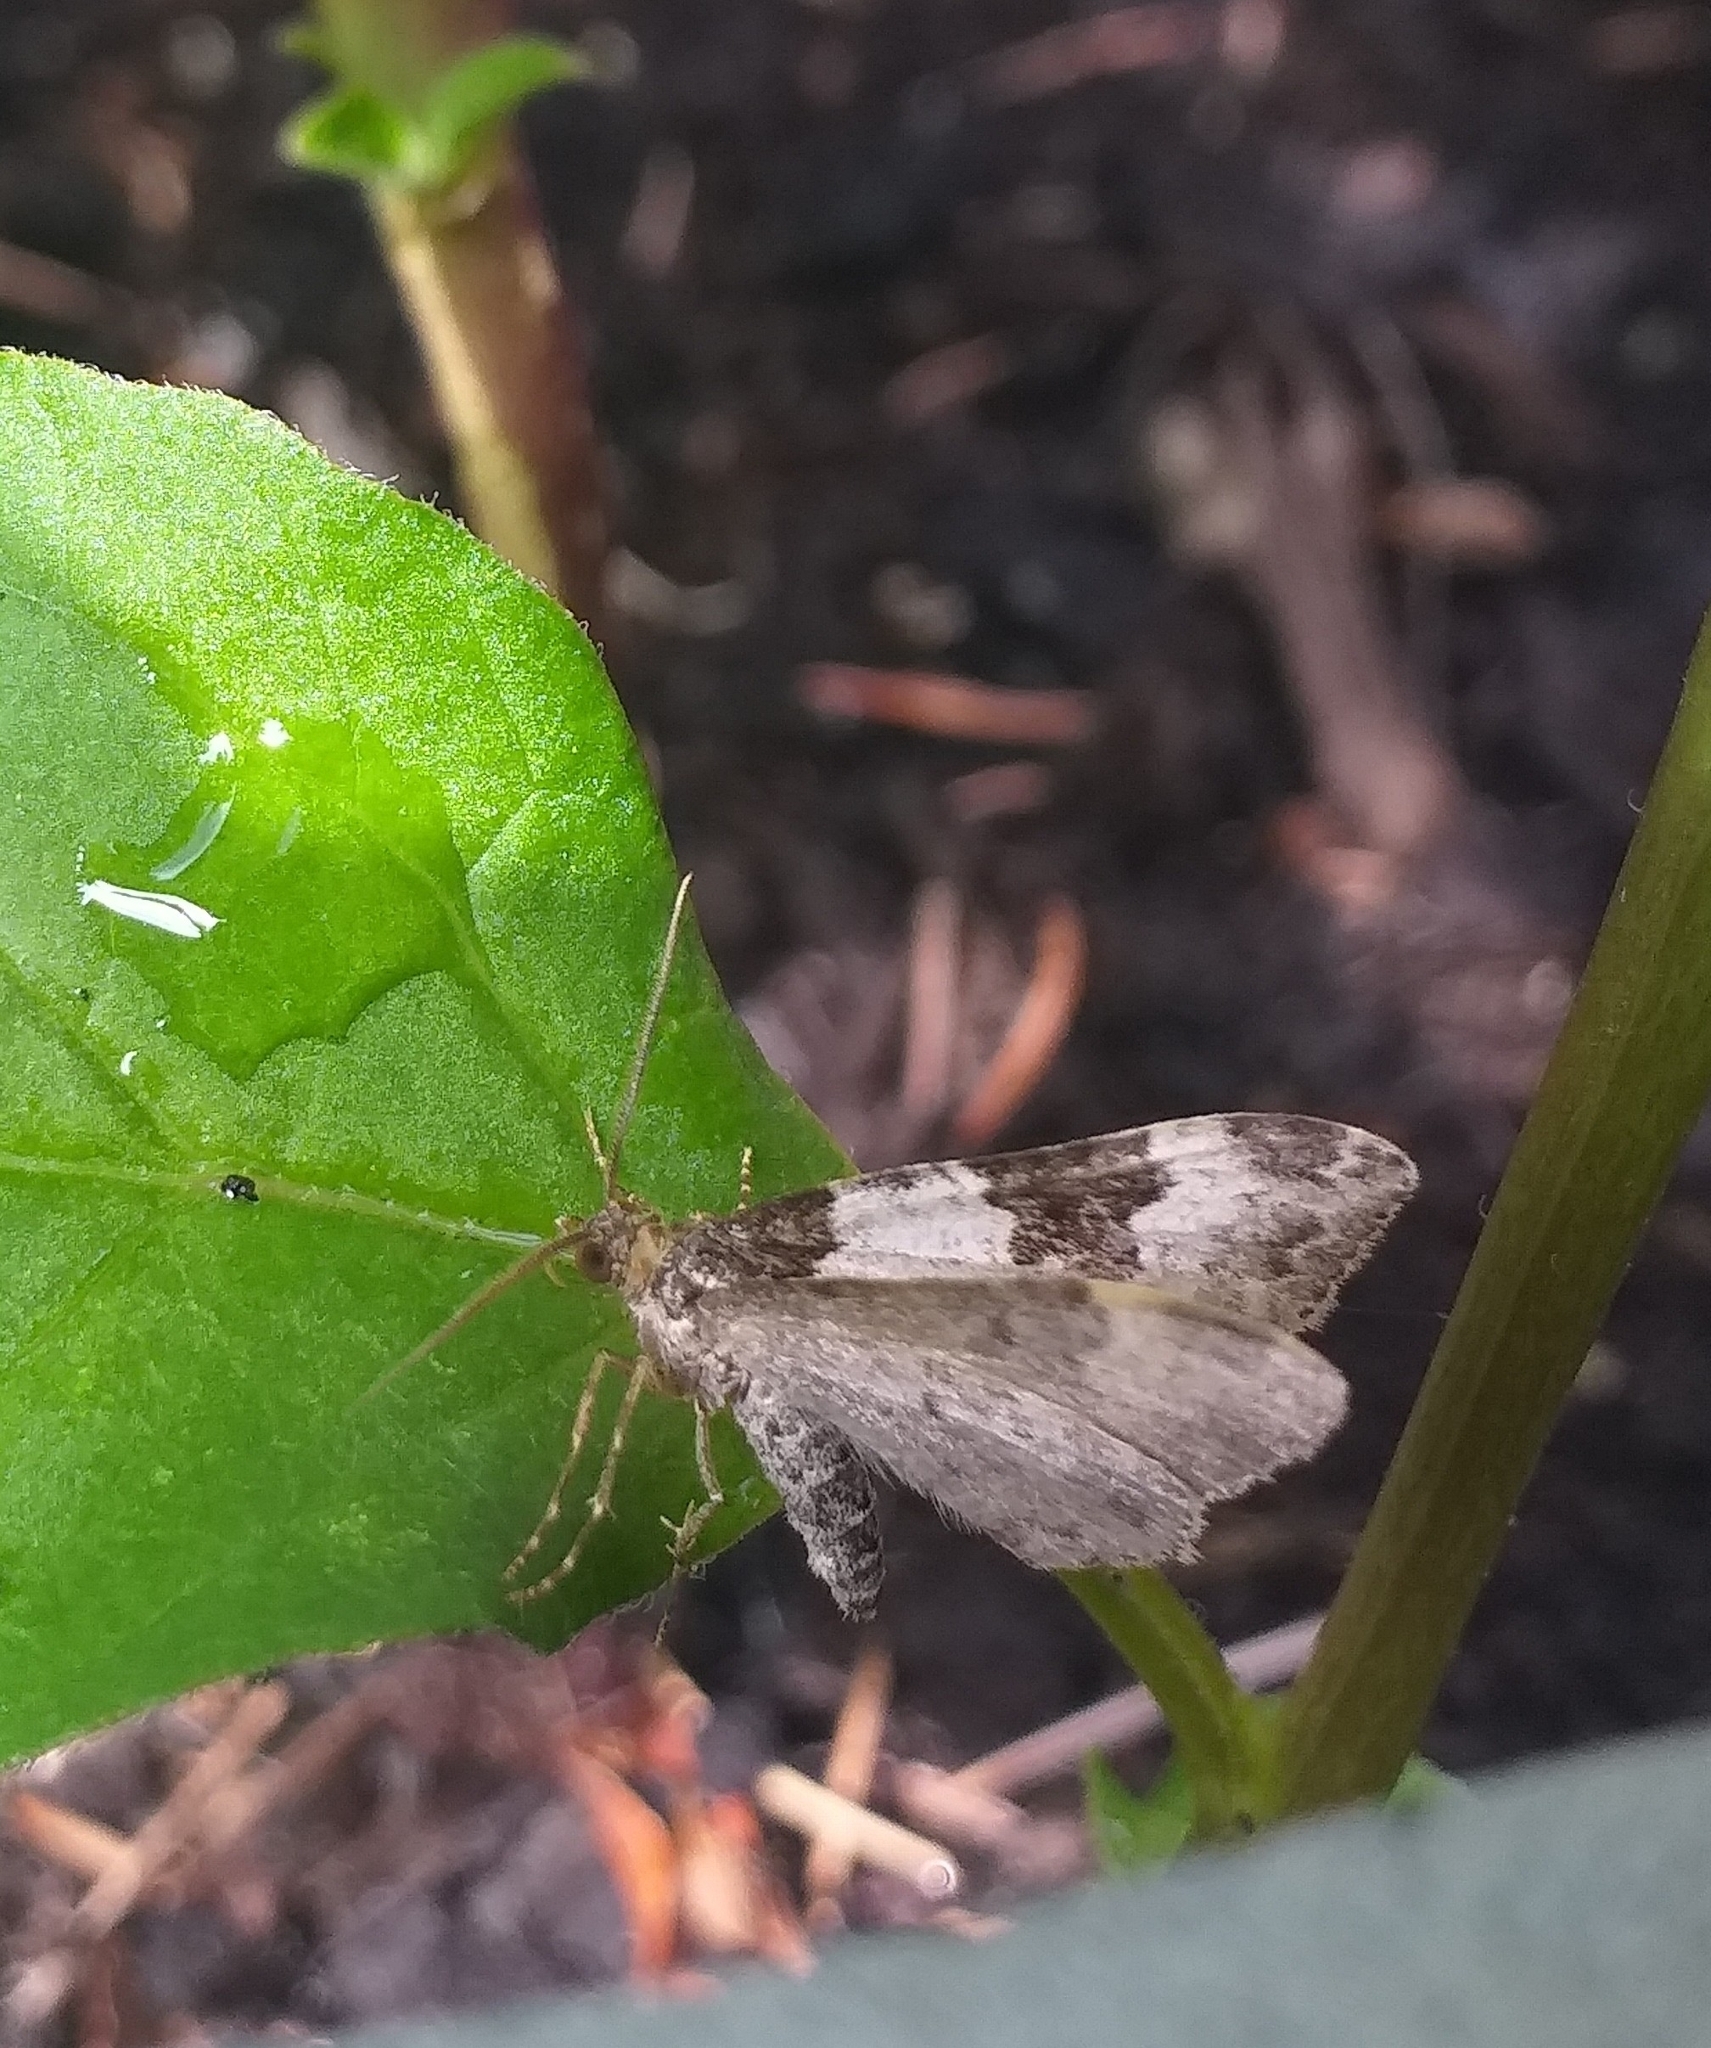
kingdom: Animalia
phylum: Arthropoda
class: Insecta
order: Lepidoptera
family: Geometridae
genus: Xanthorhoe
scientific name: Xanthorhoe fluctuata
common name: Garden carpet
